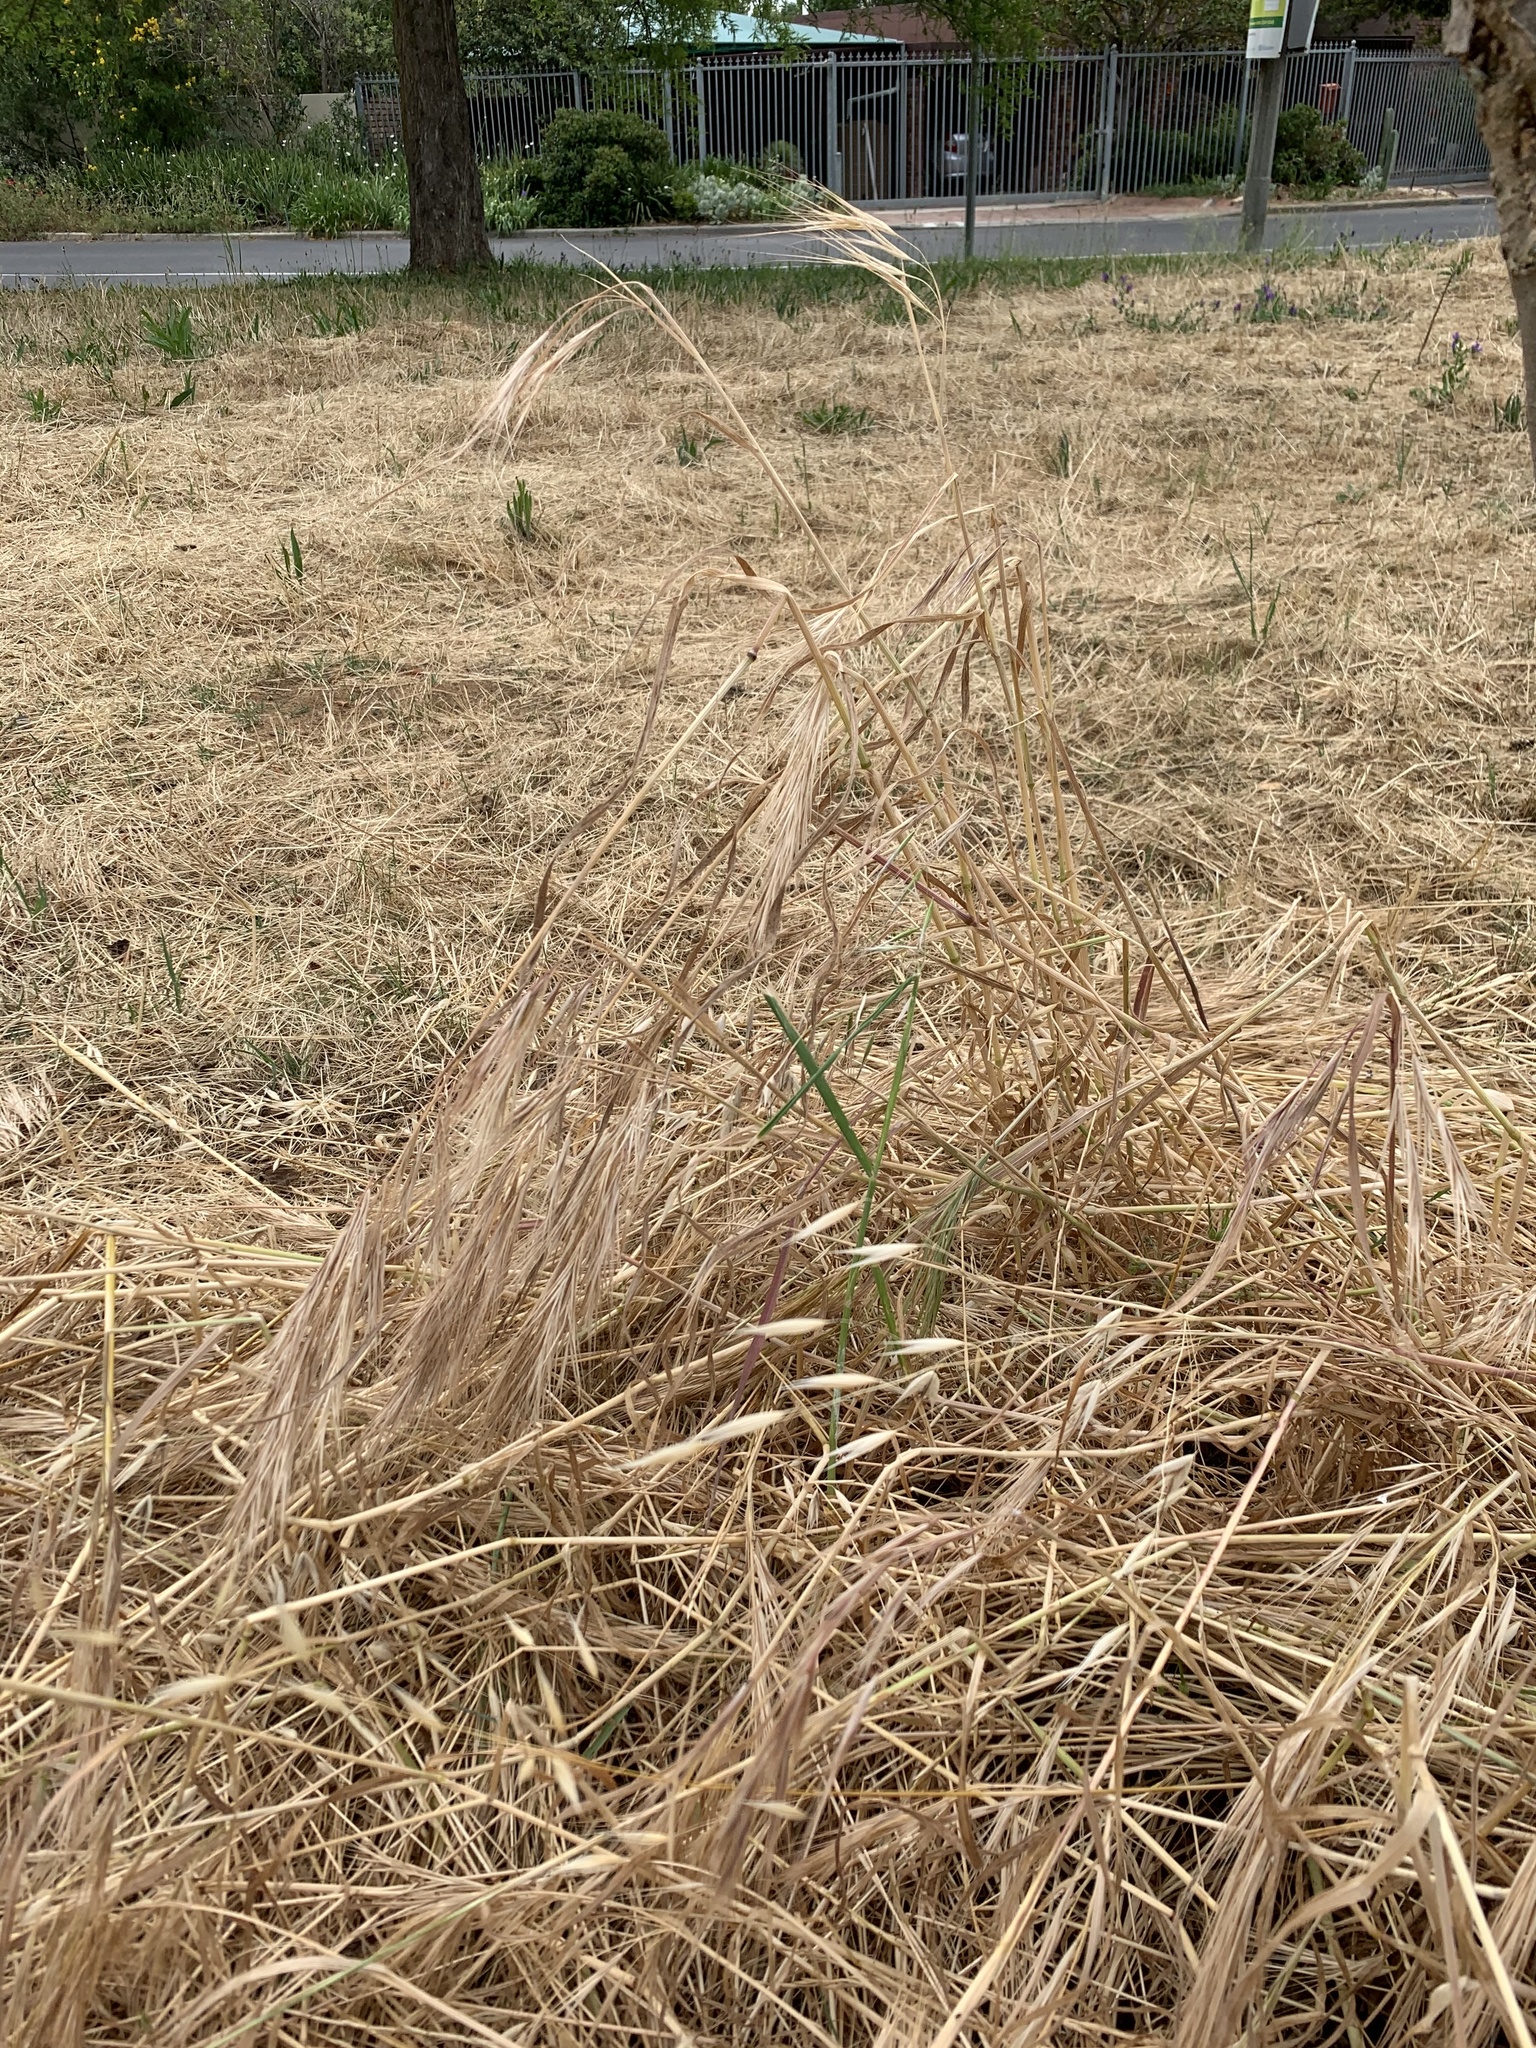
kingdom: Plantae
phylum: Tracheophyta
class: Liliopsida
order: Poales
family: Poaceae
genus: Bromus
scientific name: Bromus diandrus
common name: Ripgut brome
